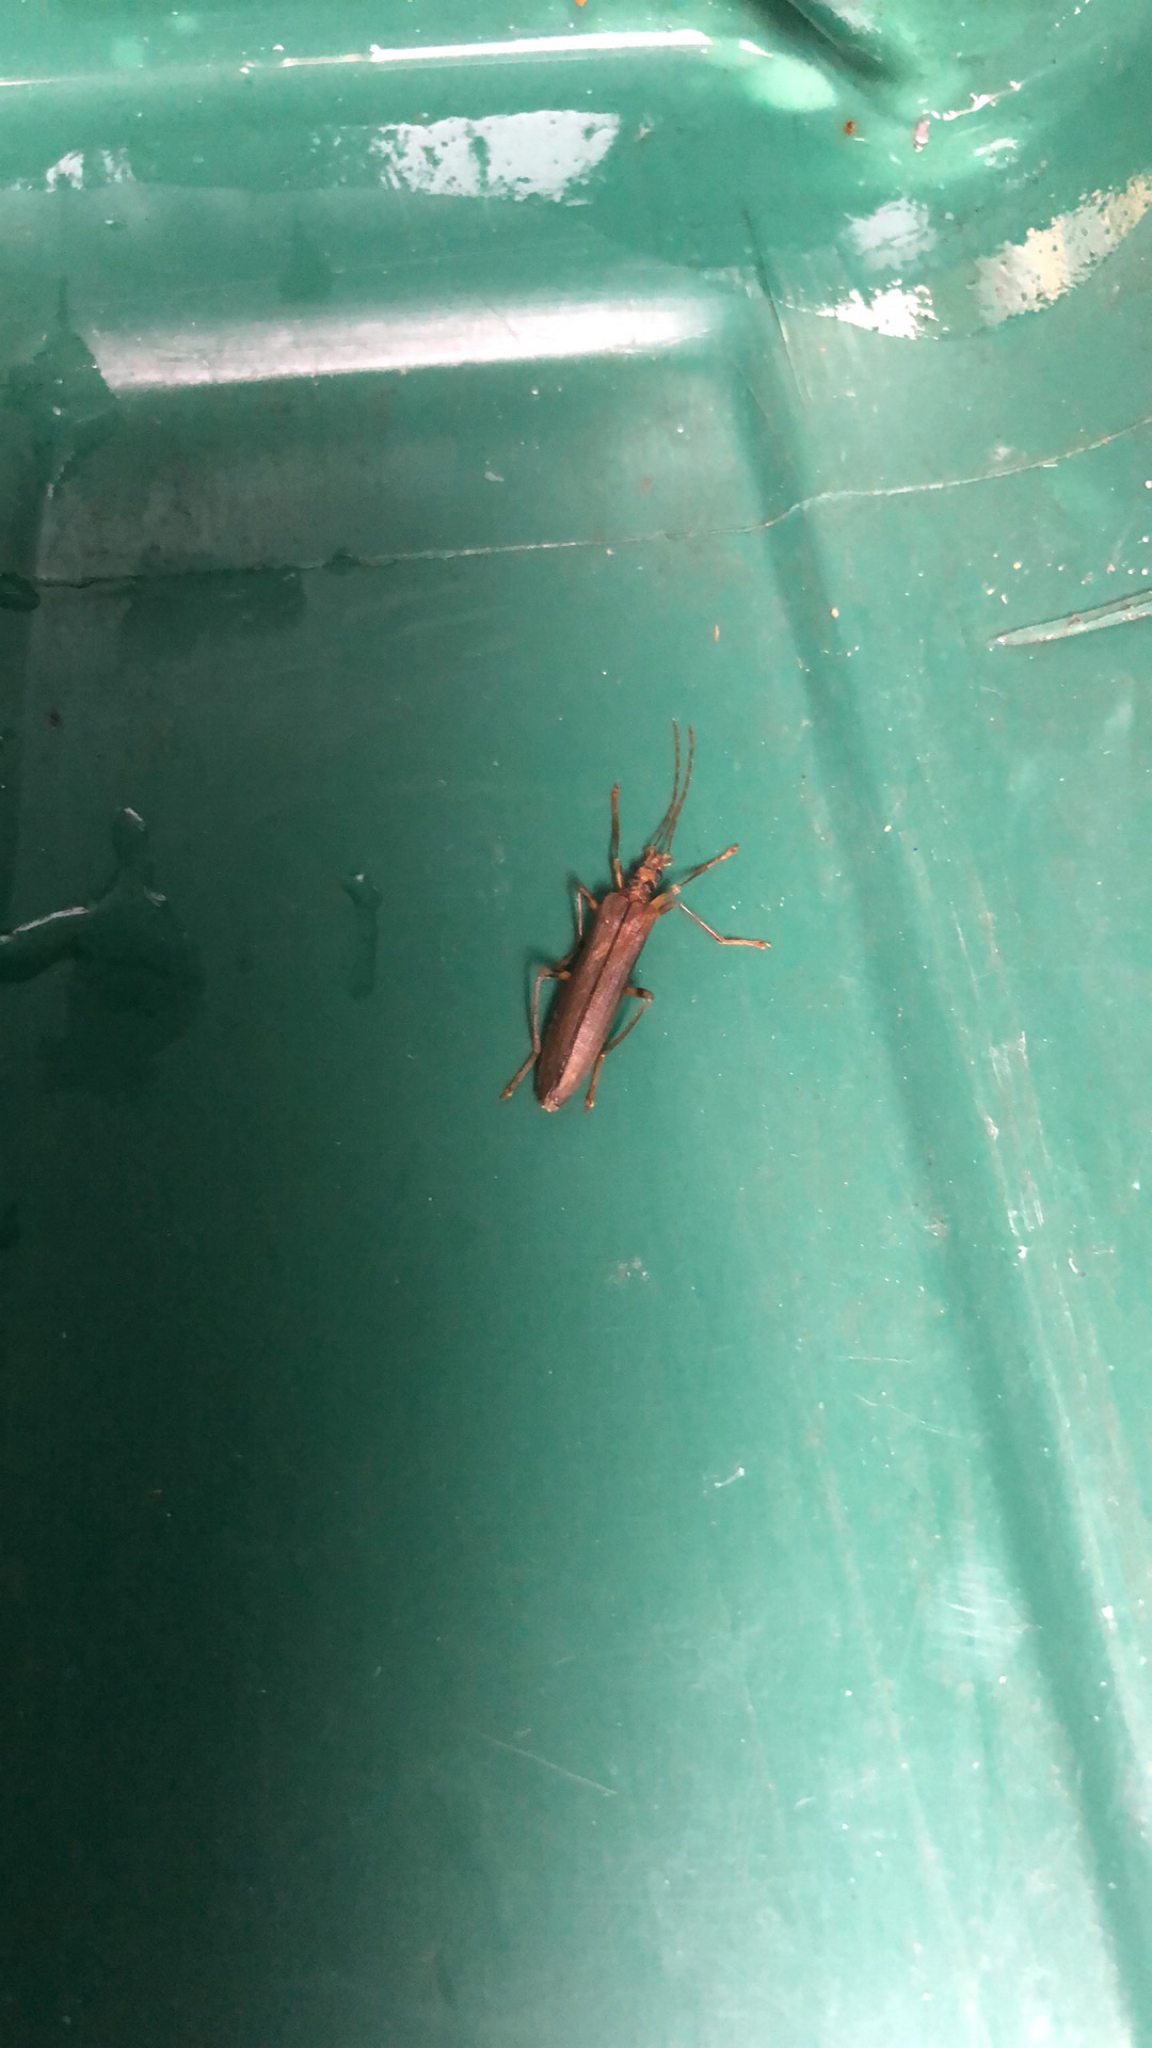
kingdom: Animalia
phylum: Arthropoda
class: Insecta
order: Coleoptera
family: Oedemeridae
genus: Oedemera
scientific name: Oedemera femoralis
